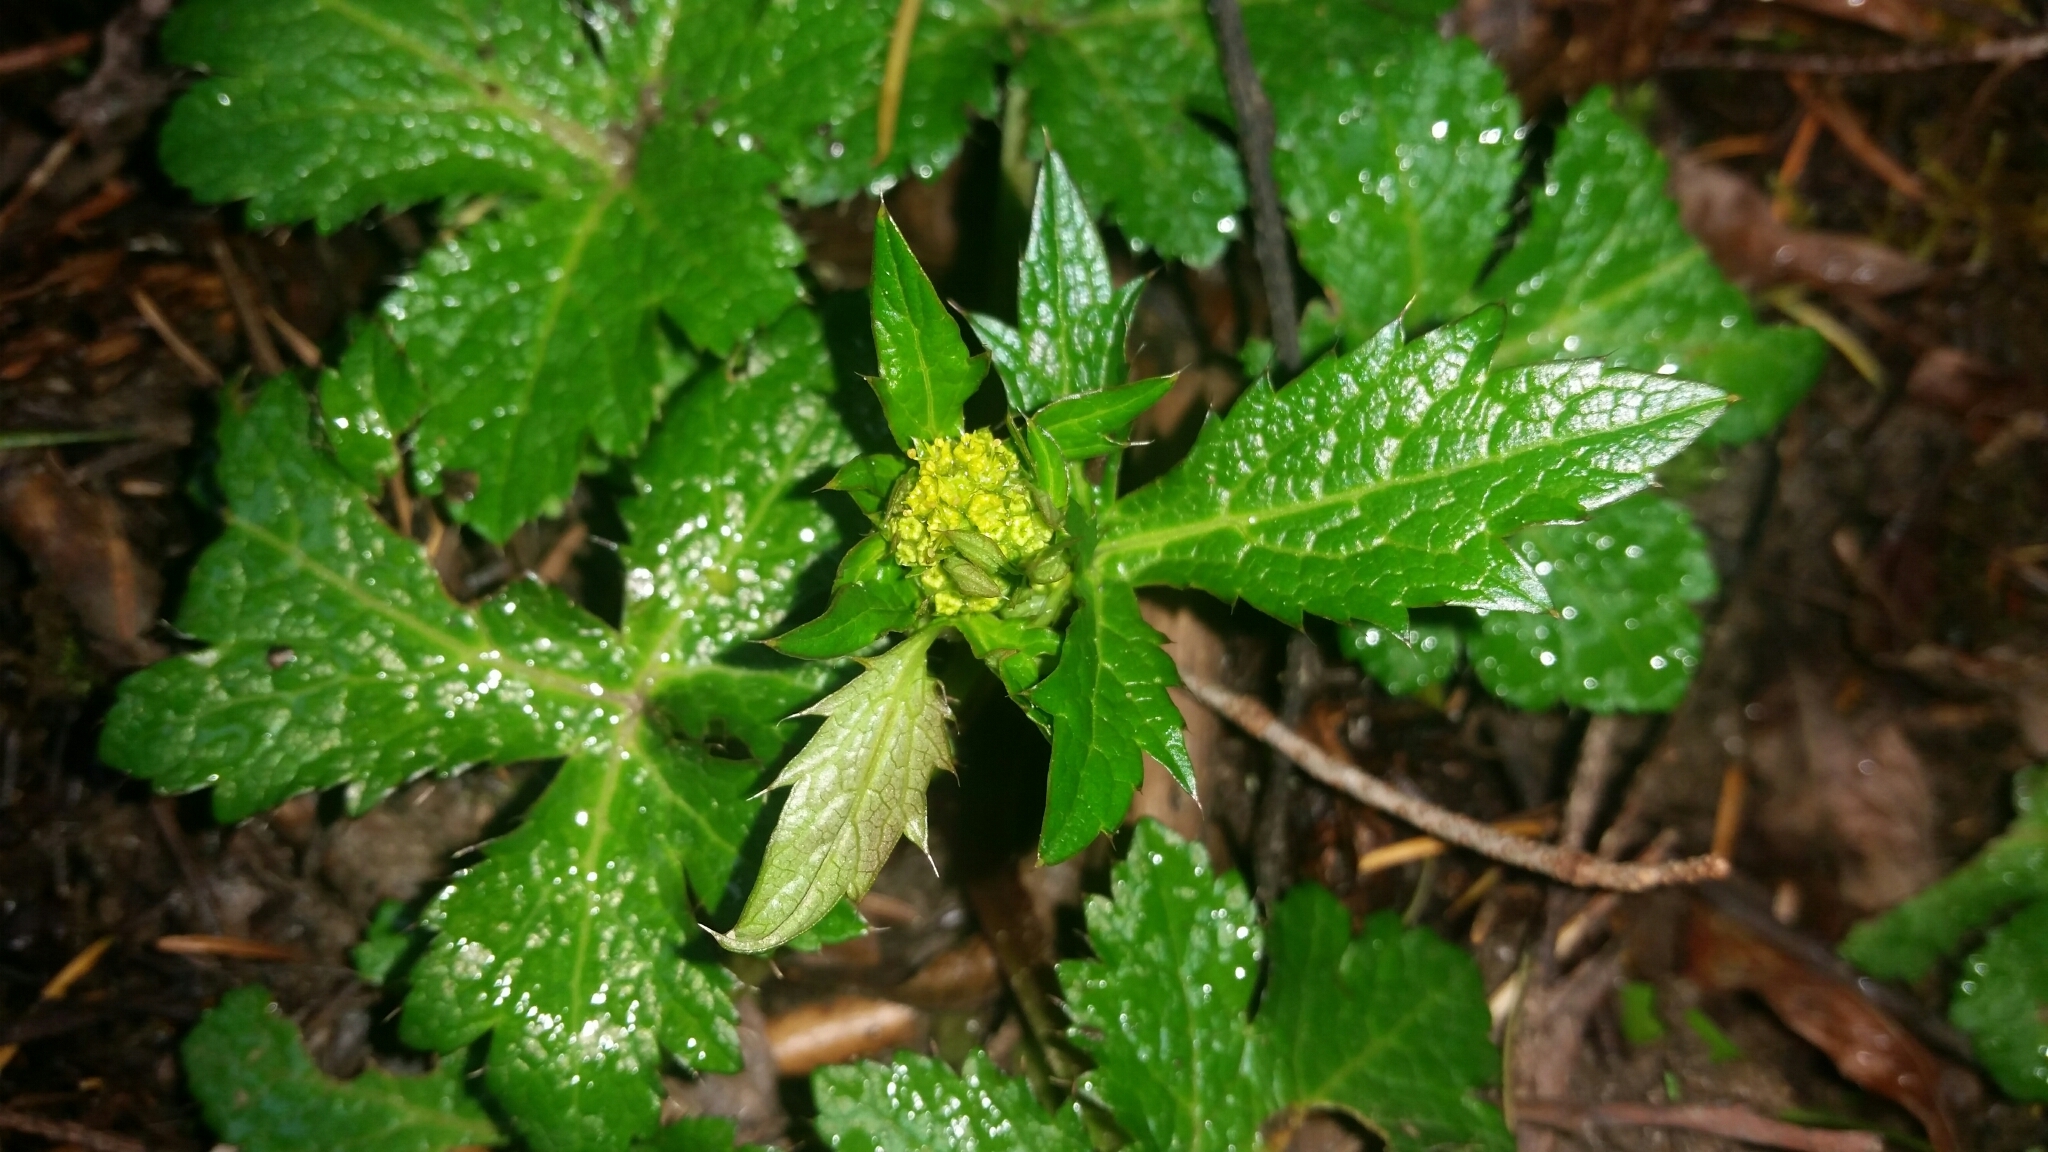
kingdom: Plantae
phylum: Tracheophyta
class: Magnoliopsida
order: Apiales
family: Apiaceae
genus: Sanicula
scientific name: Sanicula crassicaulis
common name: Western snakeroot
